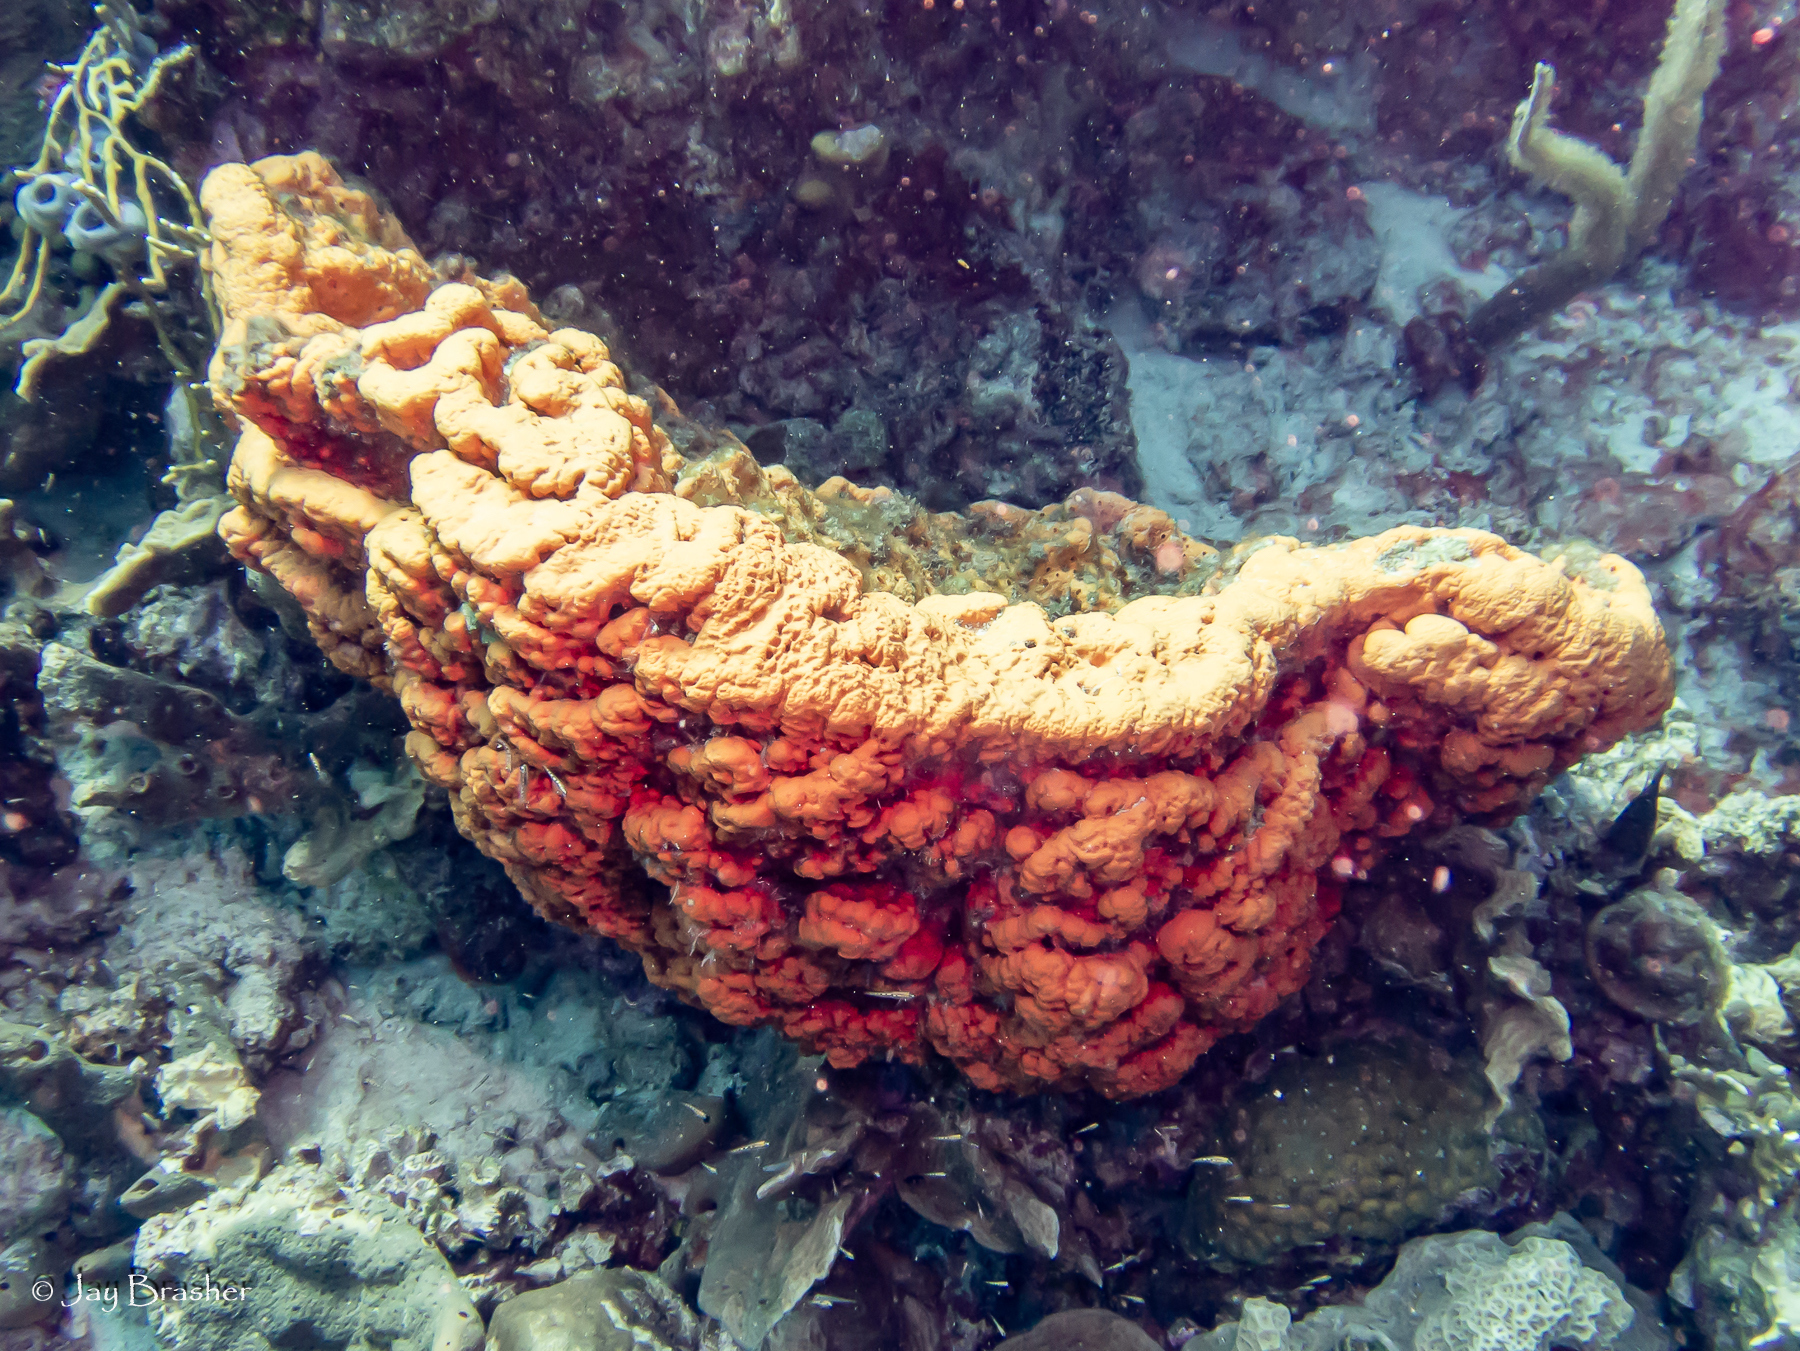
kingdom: Animalia
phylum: Porifera
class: Demospongiae
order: Agelasida
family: Agelasidae
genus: Agelas
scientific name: Agelas clathrodes
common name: Orange elephant ear sponge
